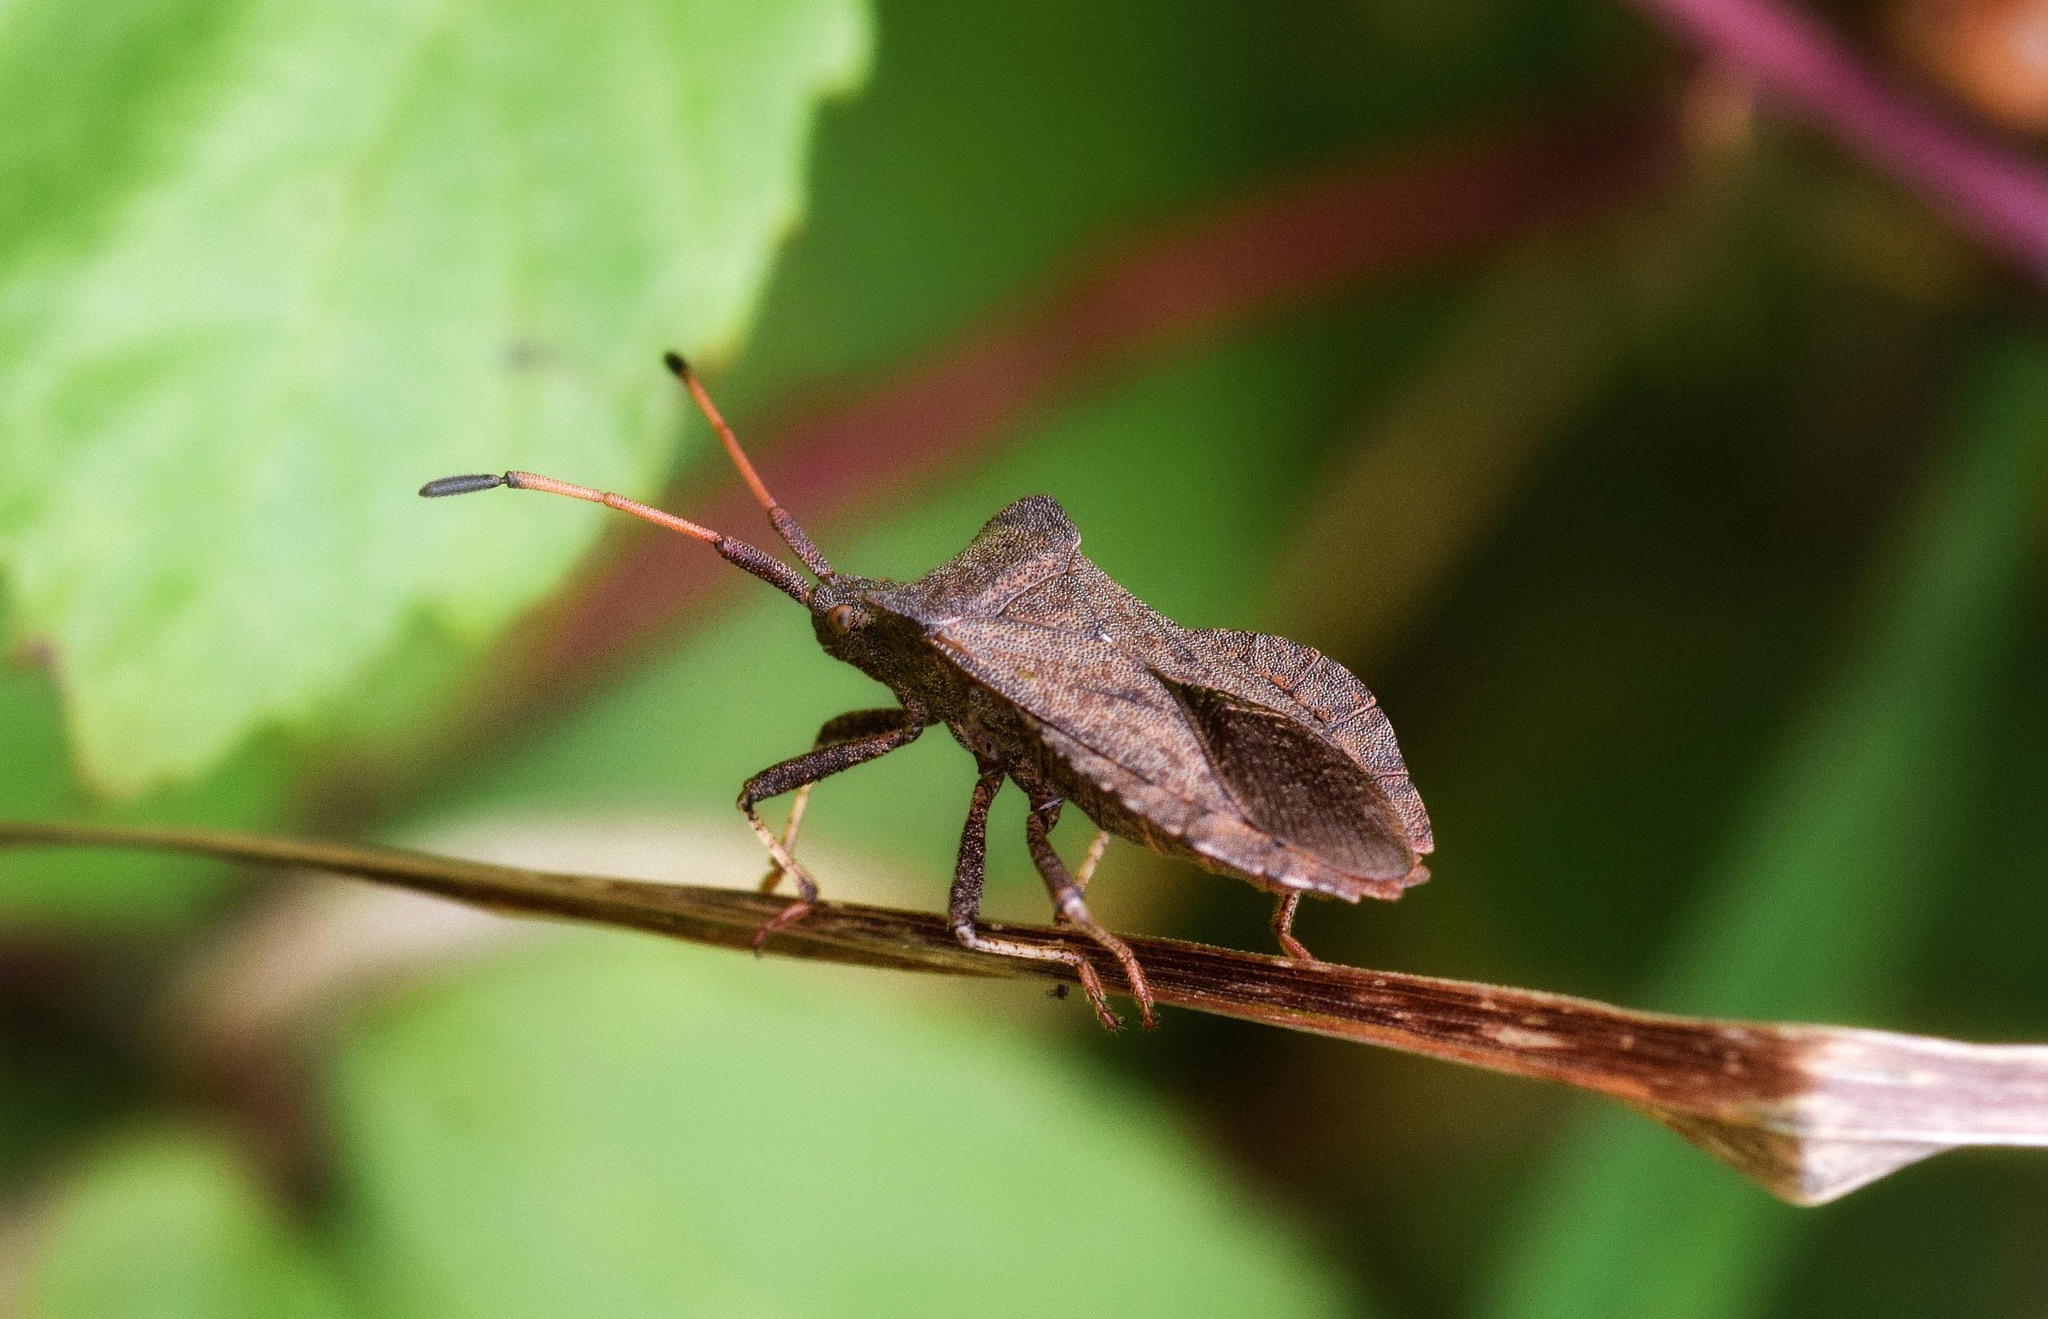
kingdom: Animalia
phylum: Arthropoda
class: Insecta
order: Hemiptera
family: Coreidae
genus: Coreus
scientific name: Coreus marginatus
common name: Dock bug
